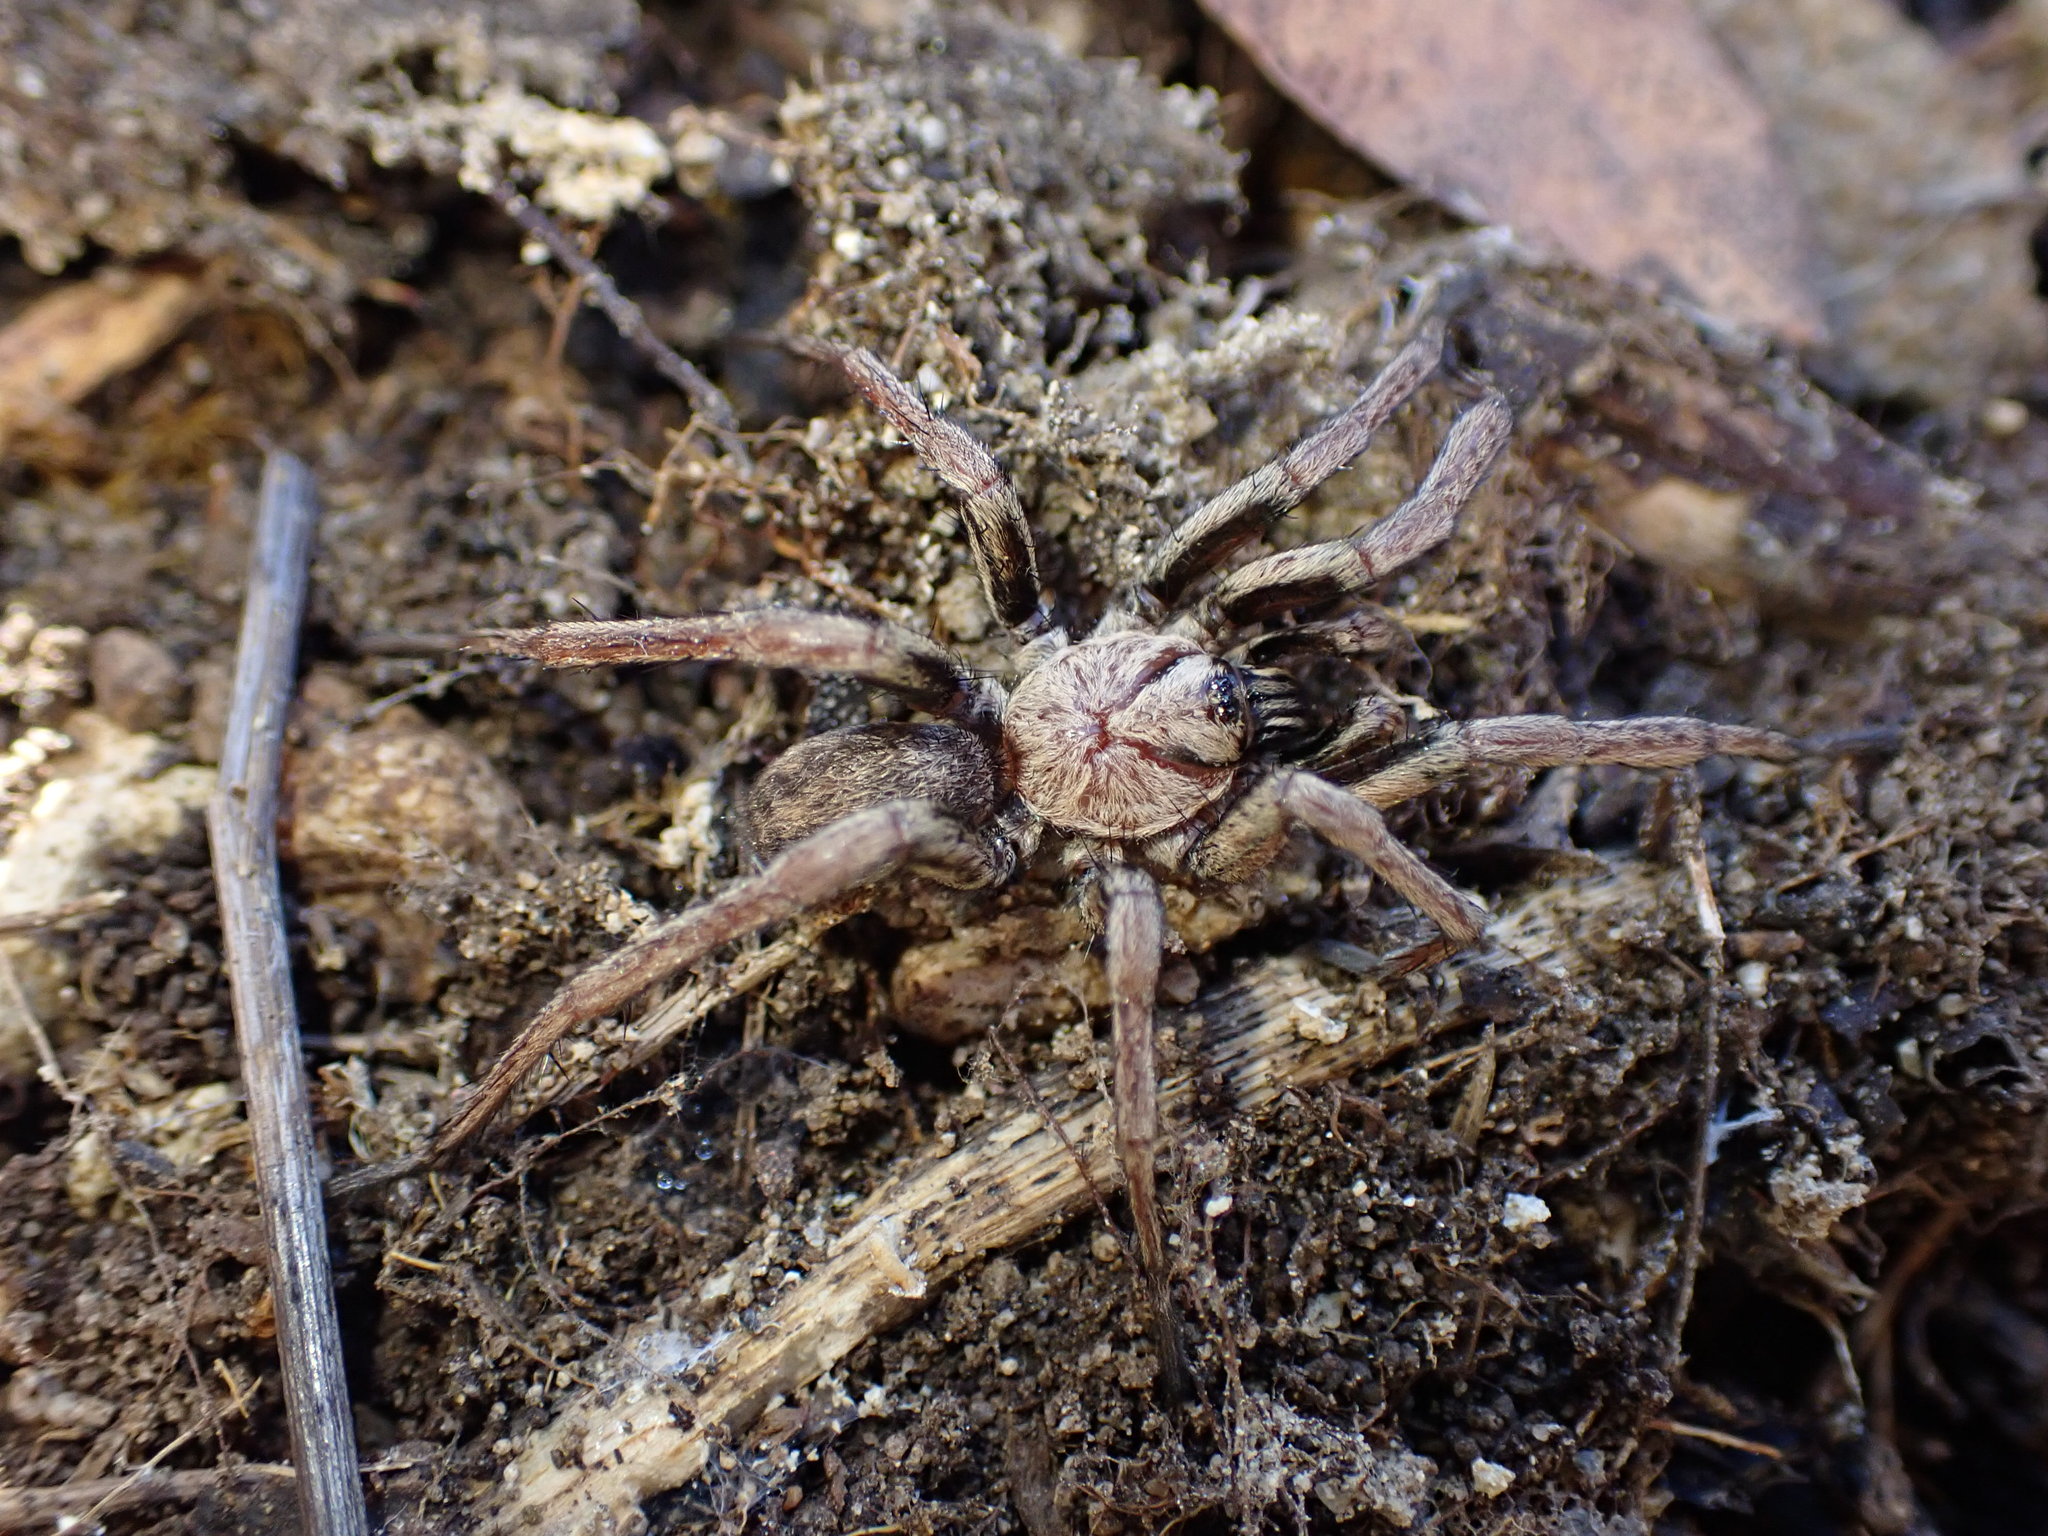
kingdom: Animalia
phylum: Arthropoda
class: Arachnida
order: Araneae
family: Nemesiidae
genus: Nemesia
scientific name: Nemesia
